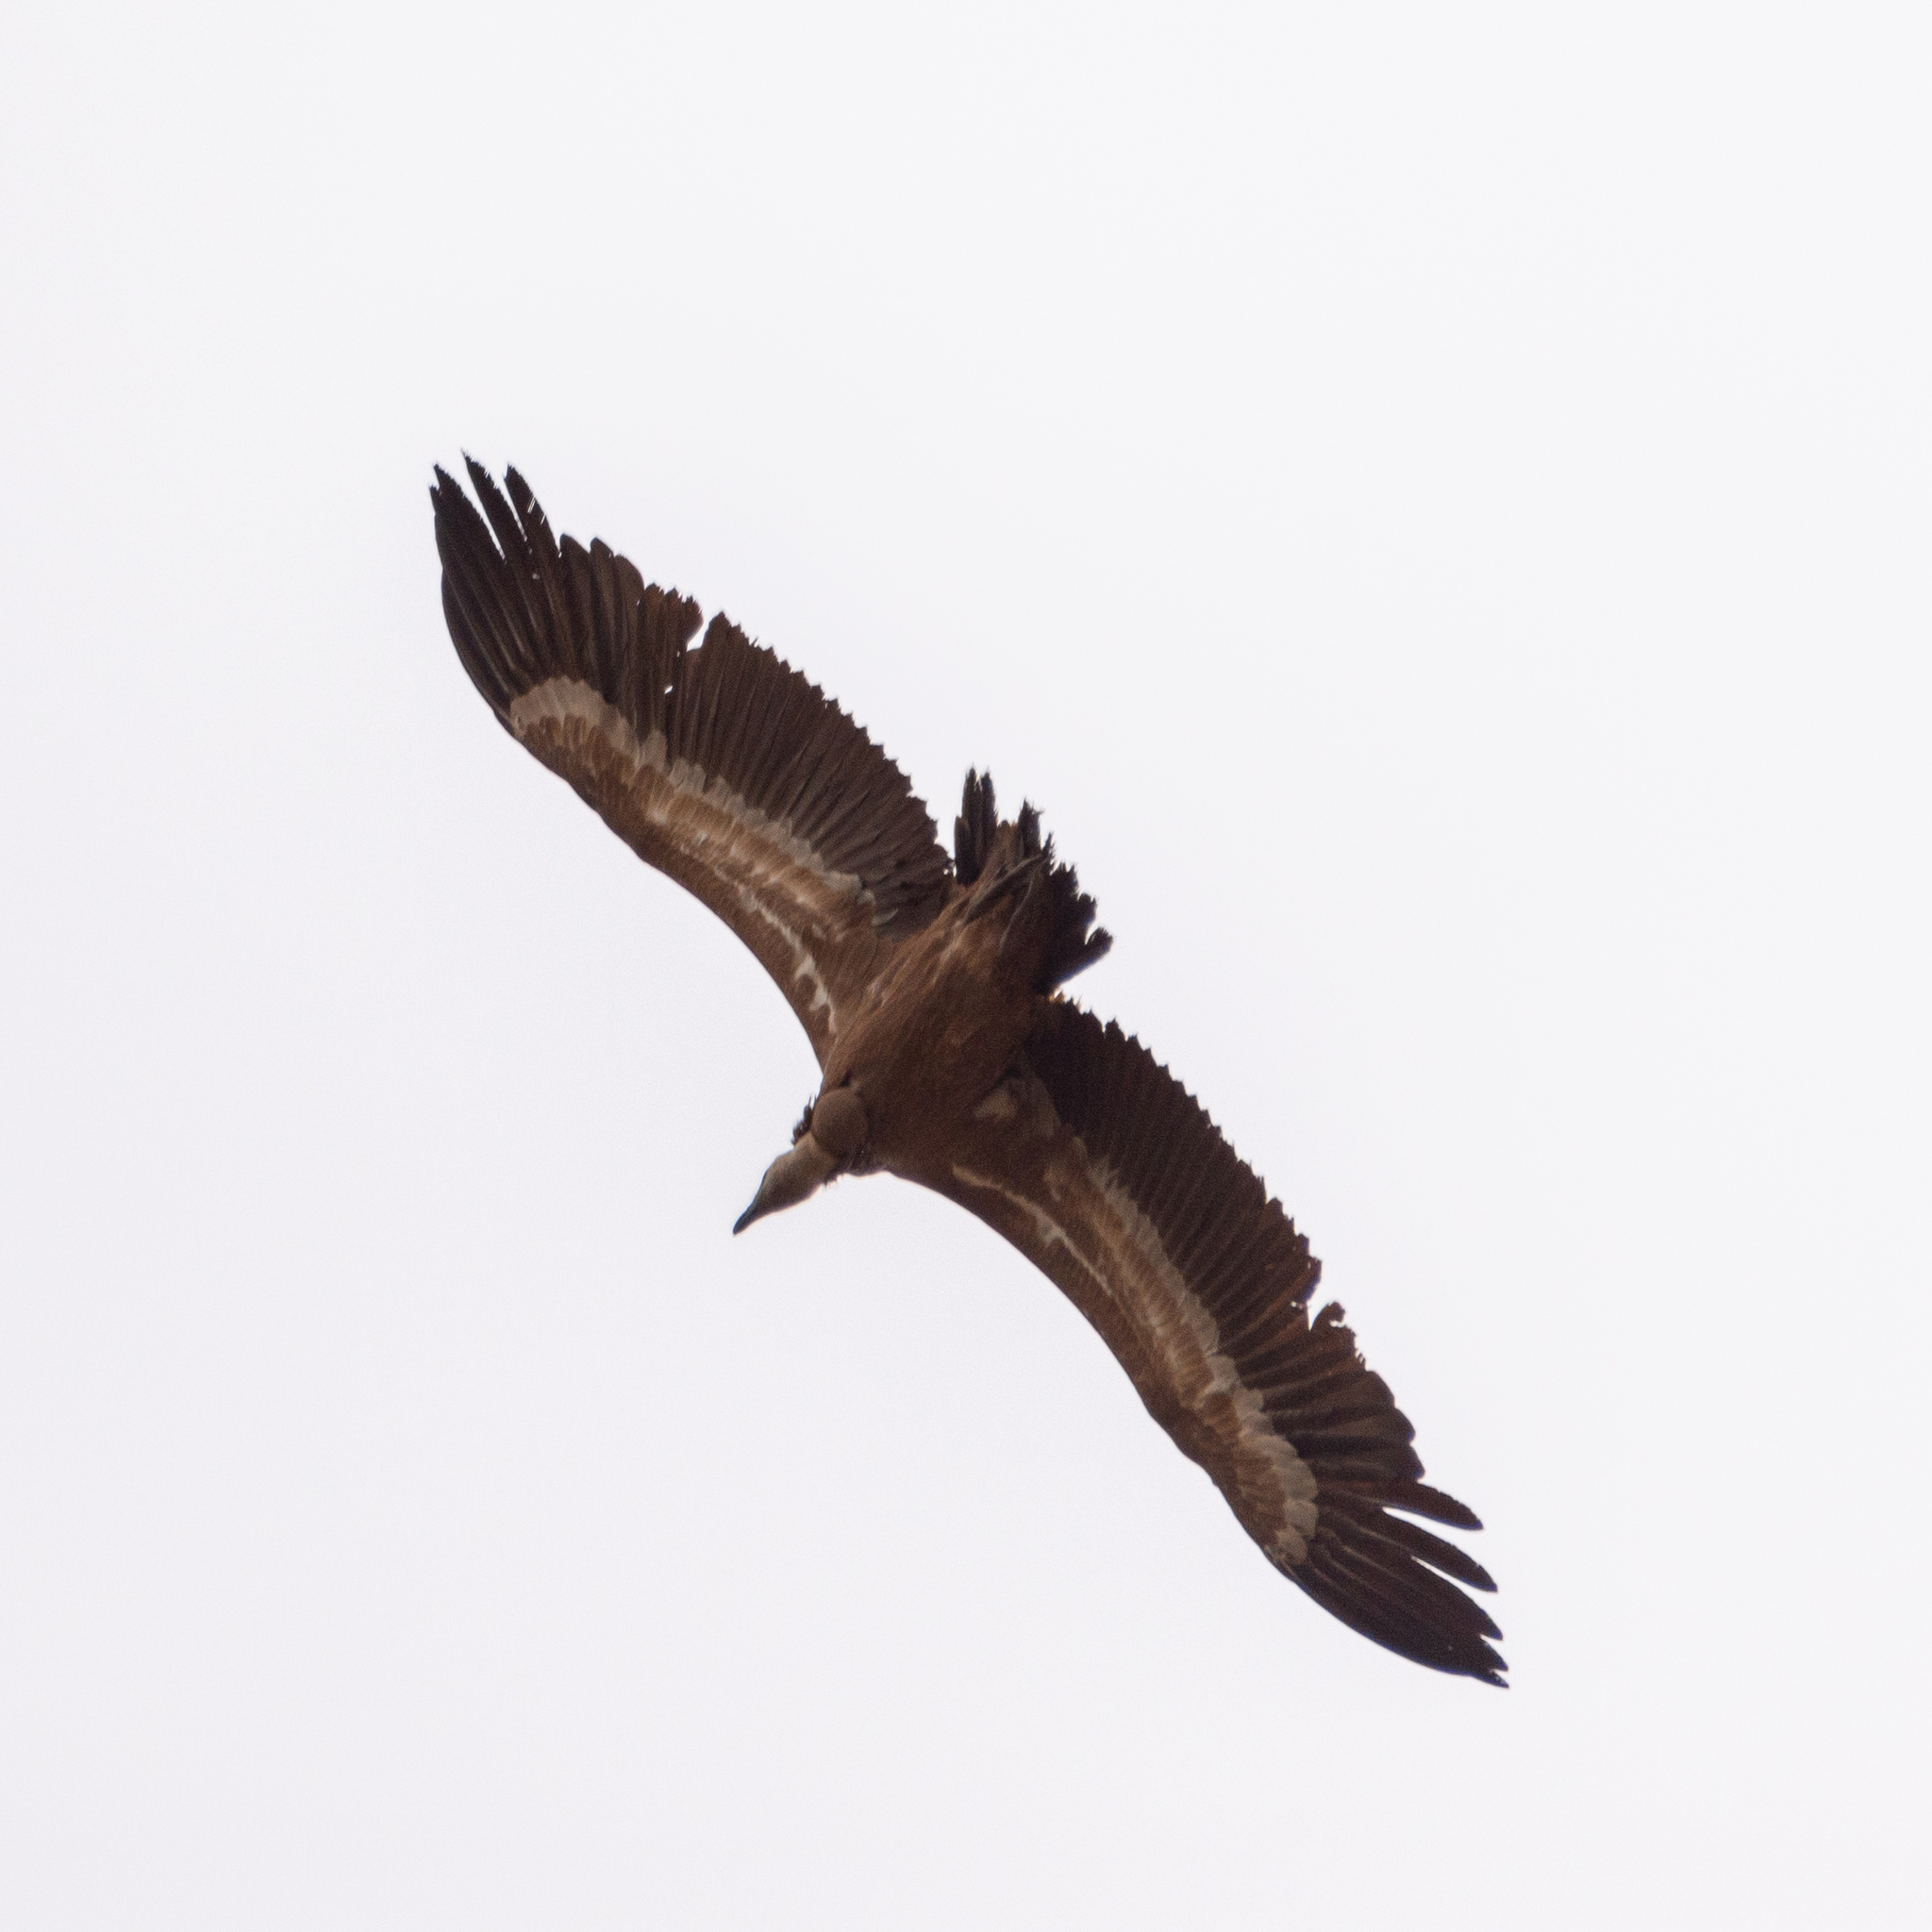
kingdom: Animalia
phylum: Chordata
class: Aves
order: Accipitriformes
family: Accipitridae
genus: Gyps
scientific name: Gyps fulvus
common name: Griffon vulture
